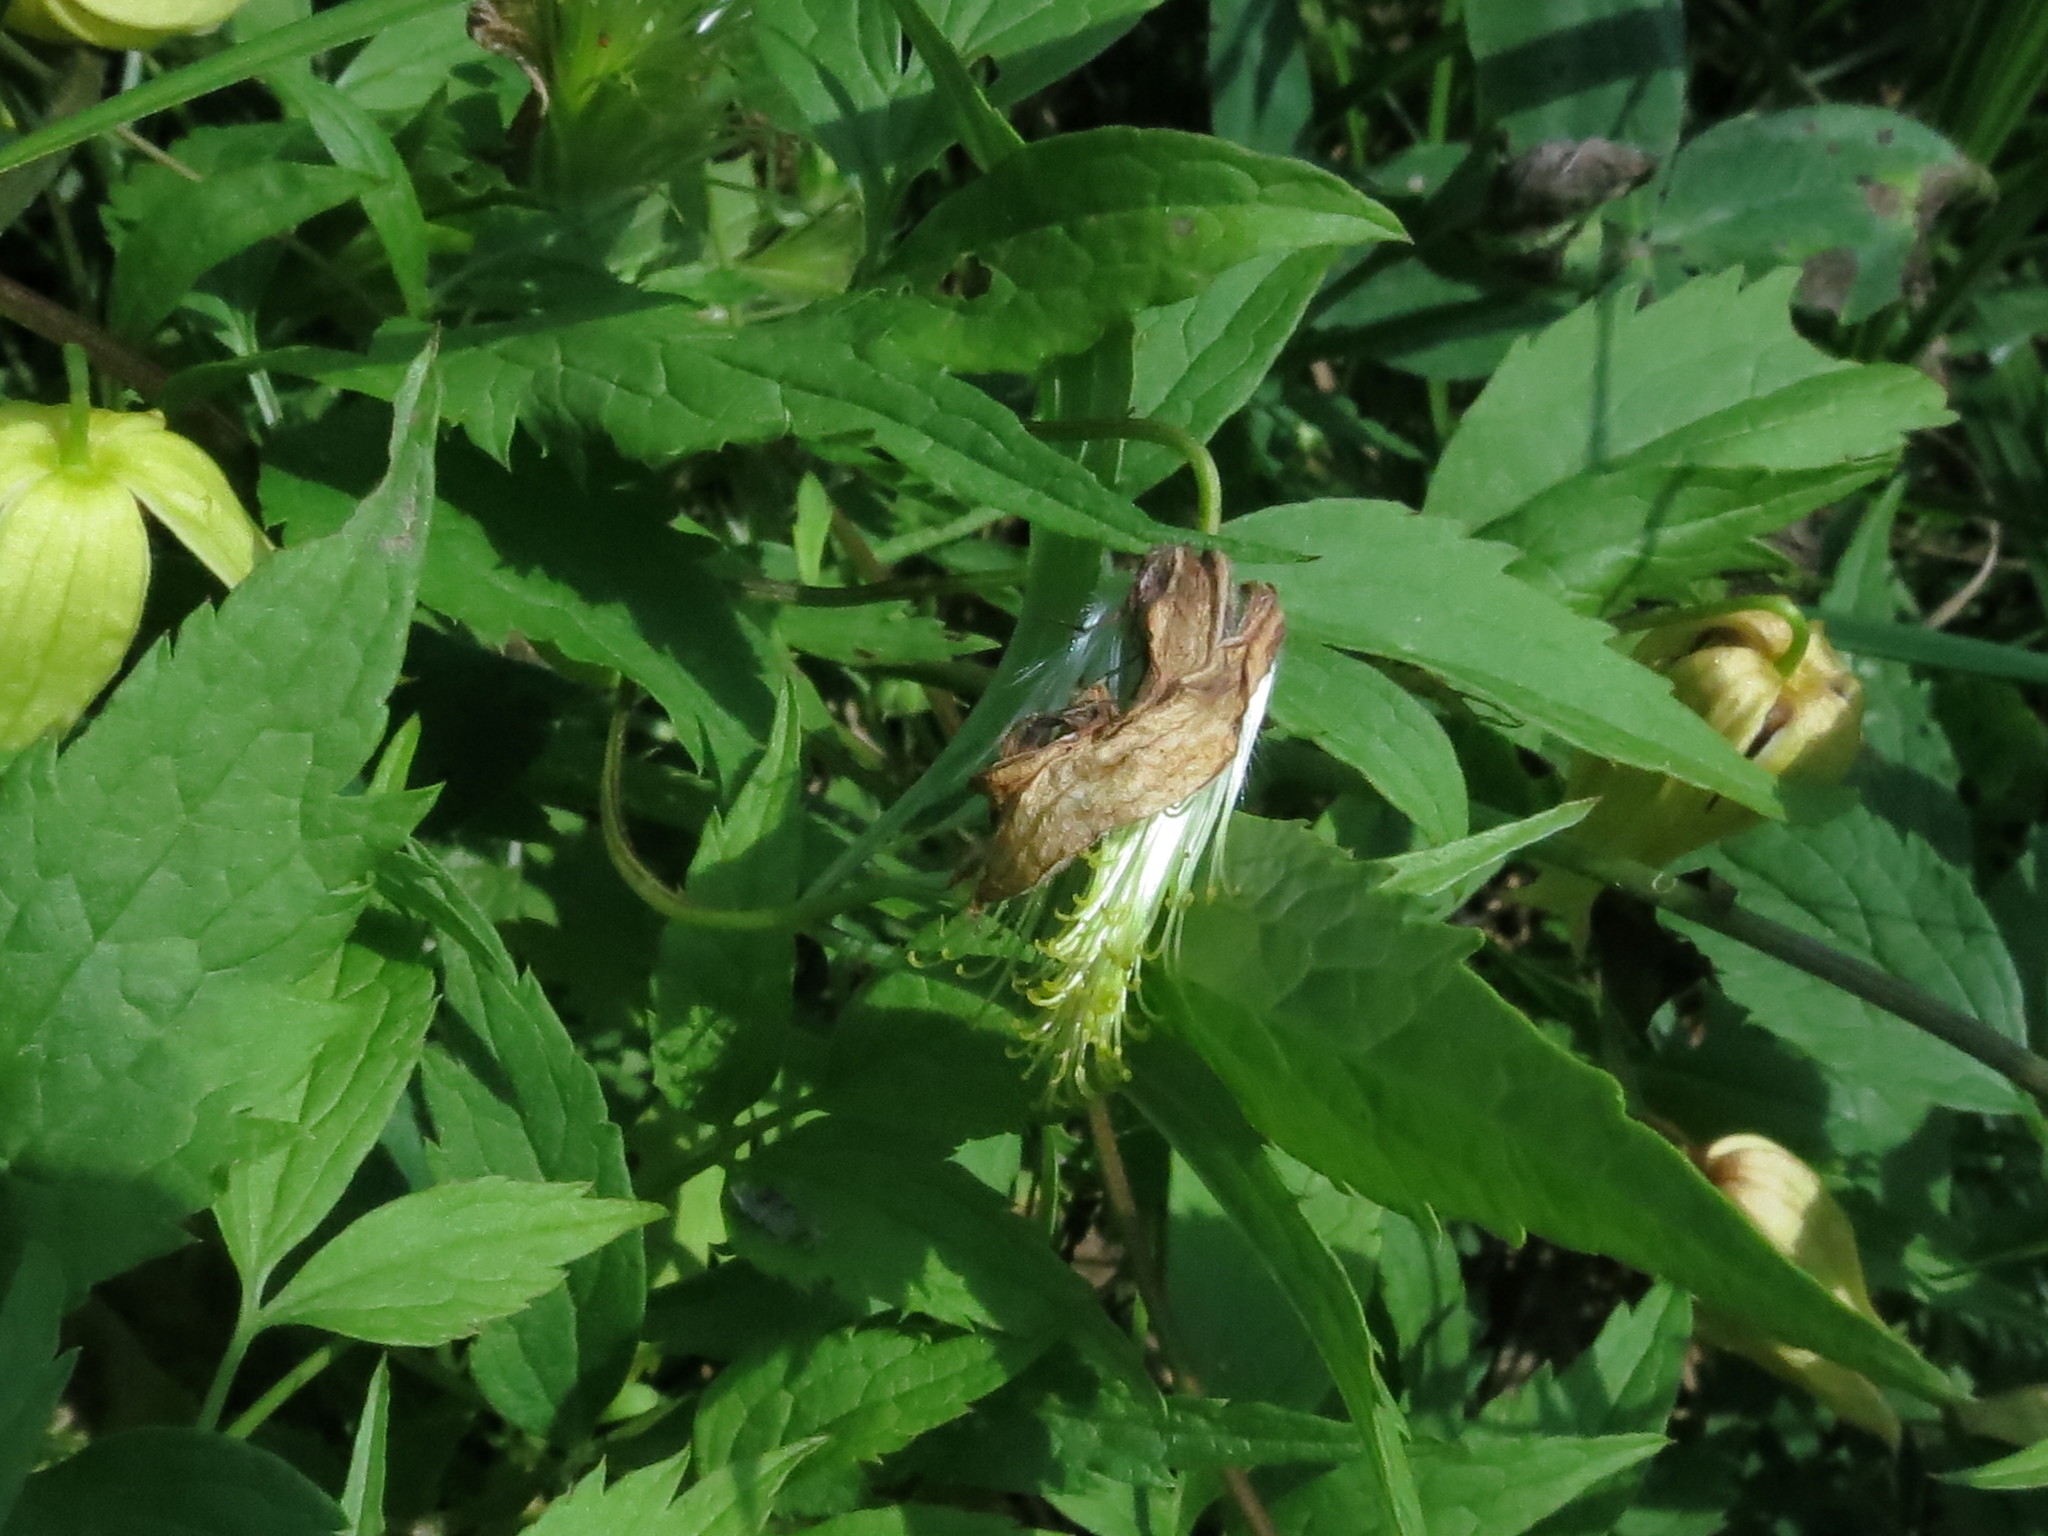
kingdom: Plantae
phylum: Tracheophyta
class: Magnoliopsida
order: Ranunculales
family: Ranunculaceae
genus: Clematis
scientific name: Clematis serratifolia
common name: Korean clematis
